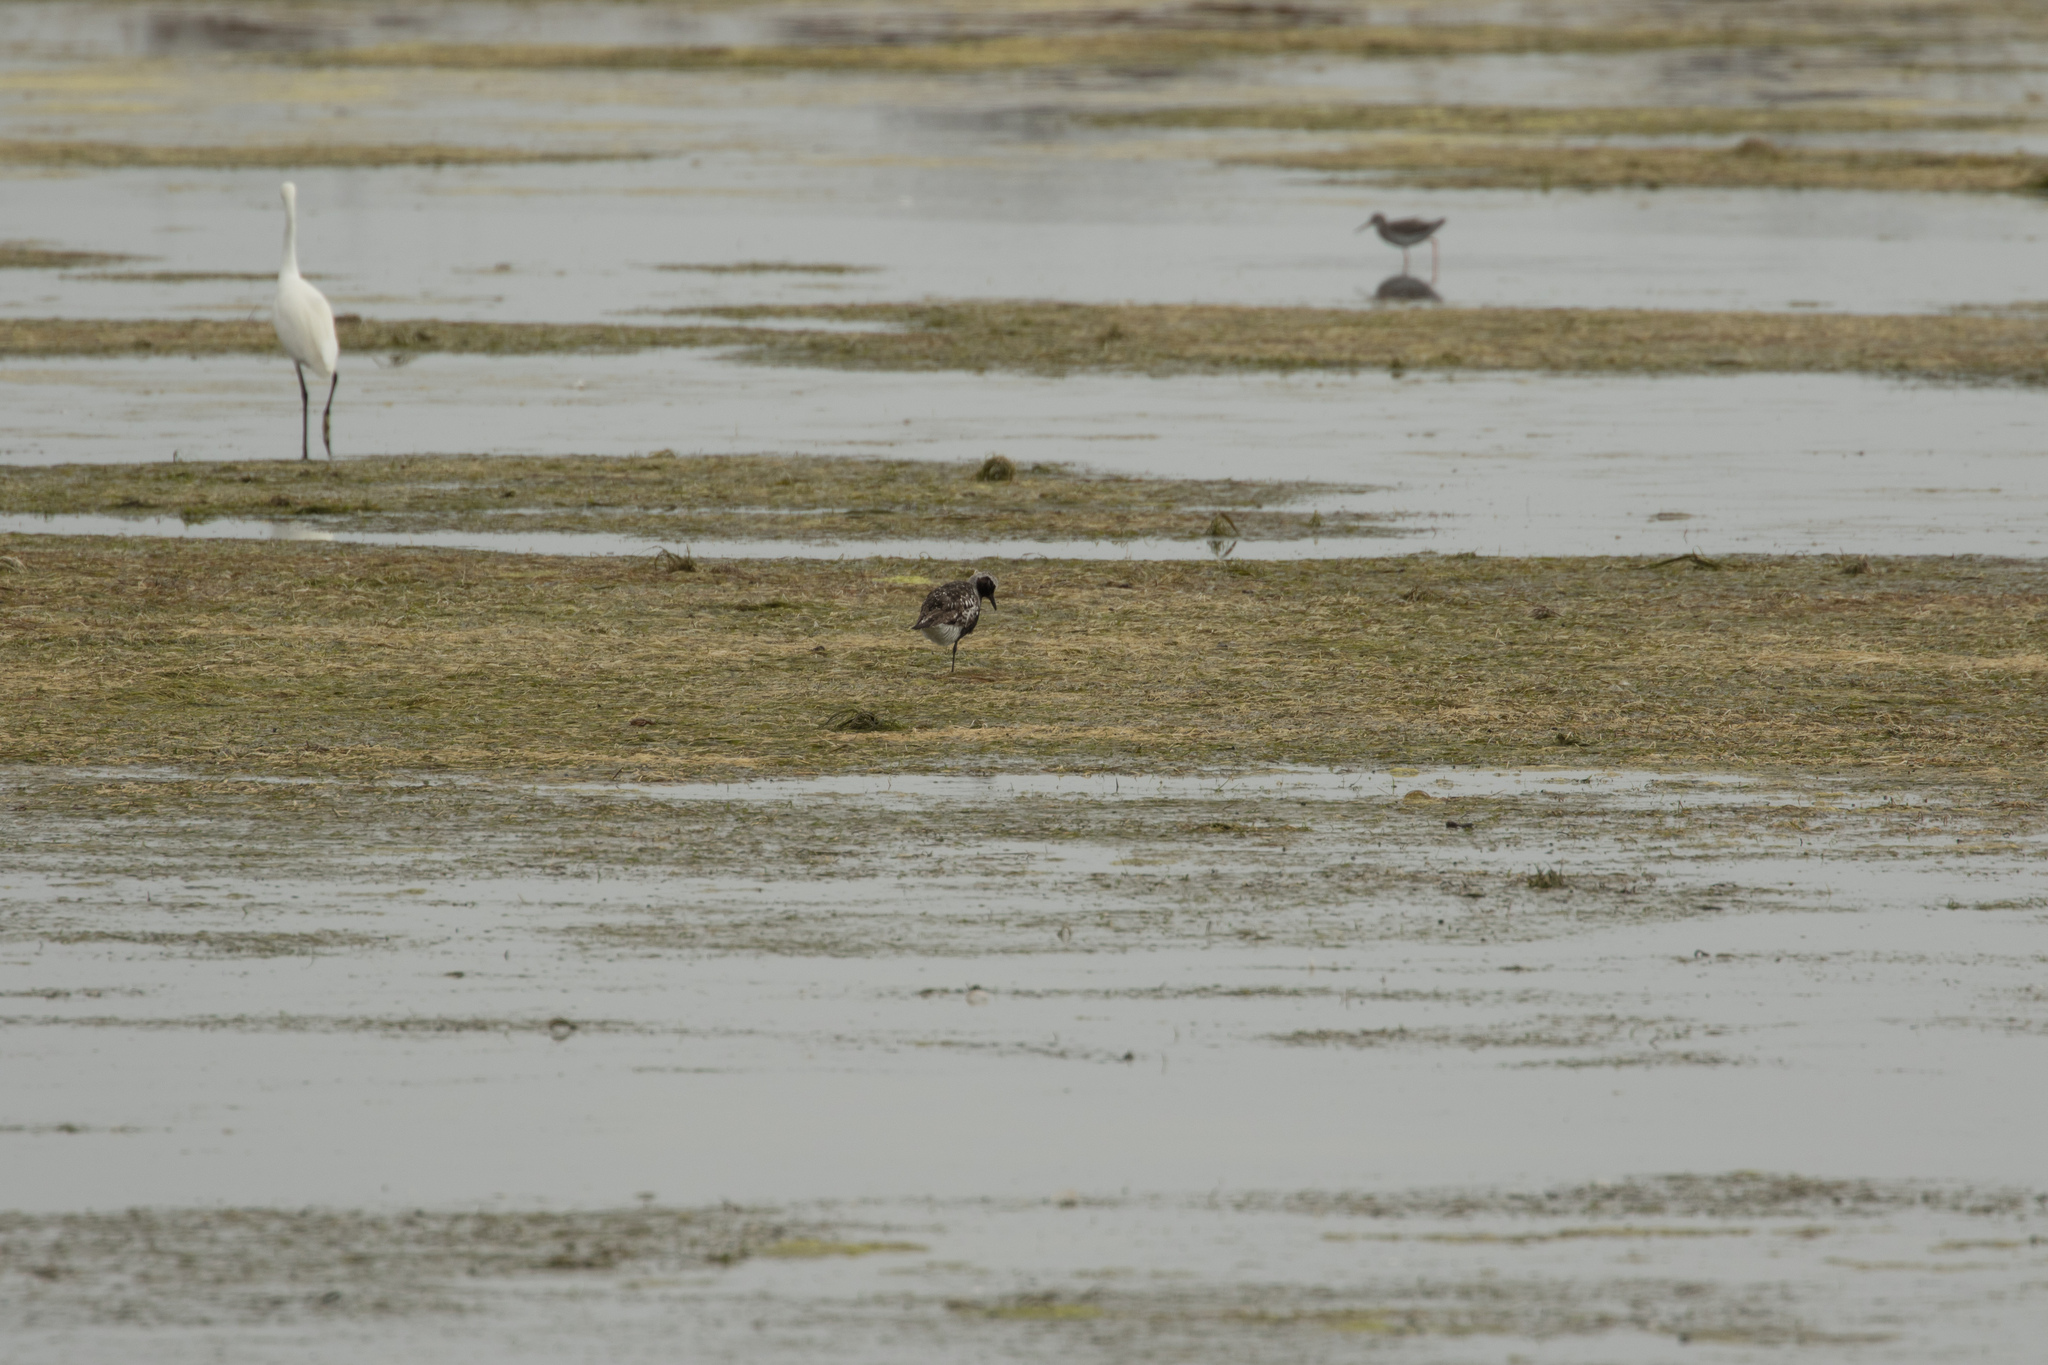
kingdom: Animalia
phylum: Chordata
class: Aves
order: Charadriiformes
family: Charadriidae
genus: Pluvialis
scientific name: Pluvialis squatarola
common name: Grey plover
